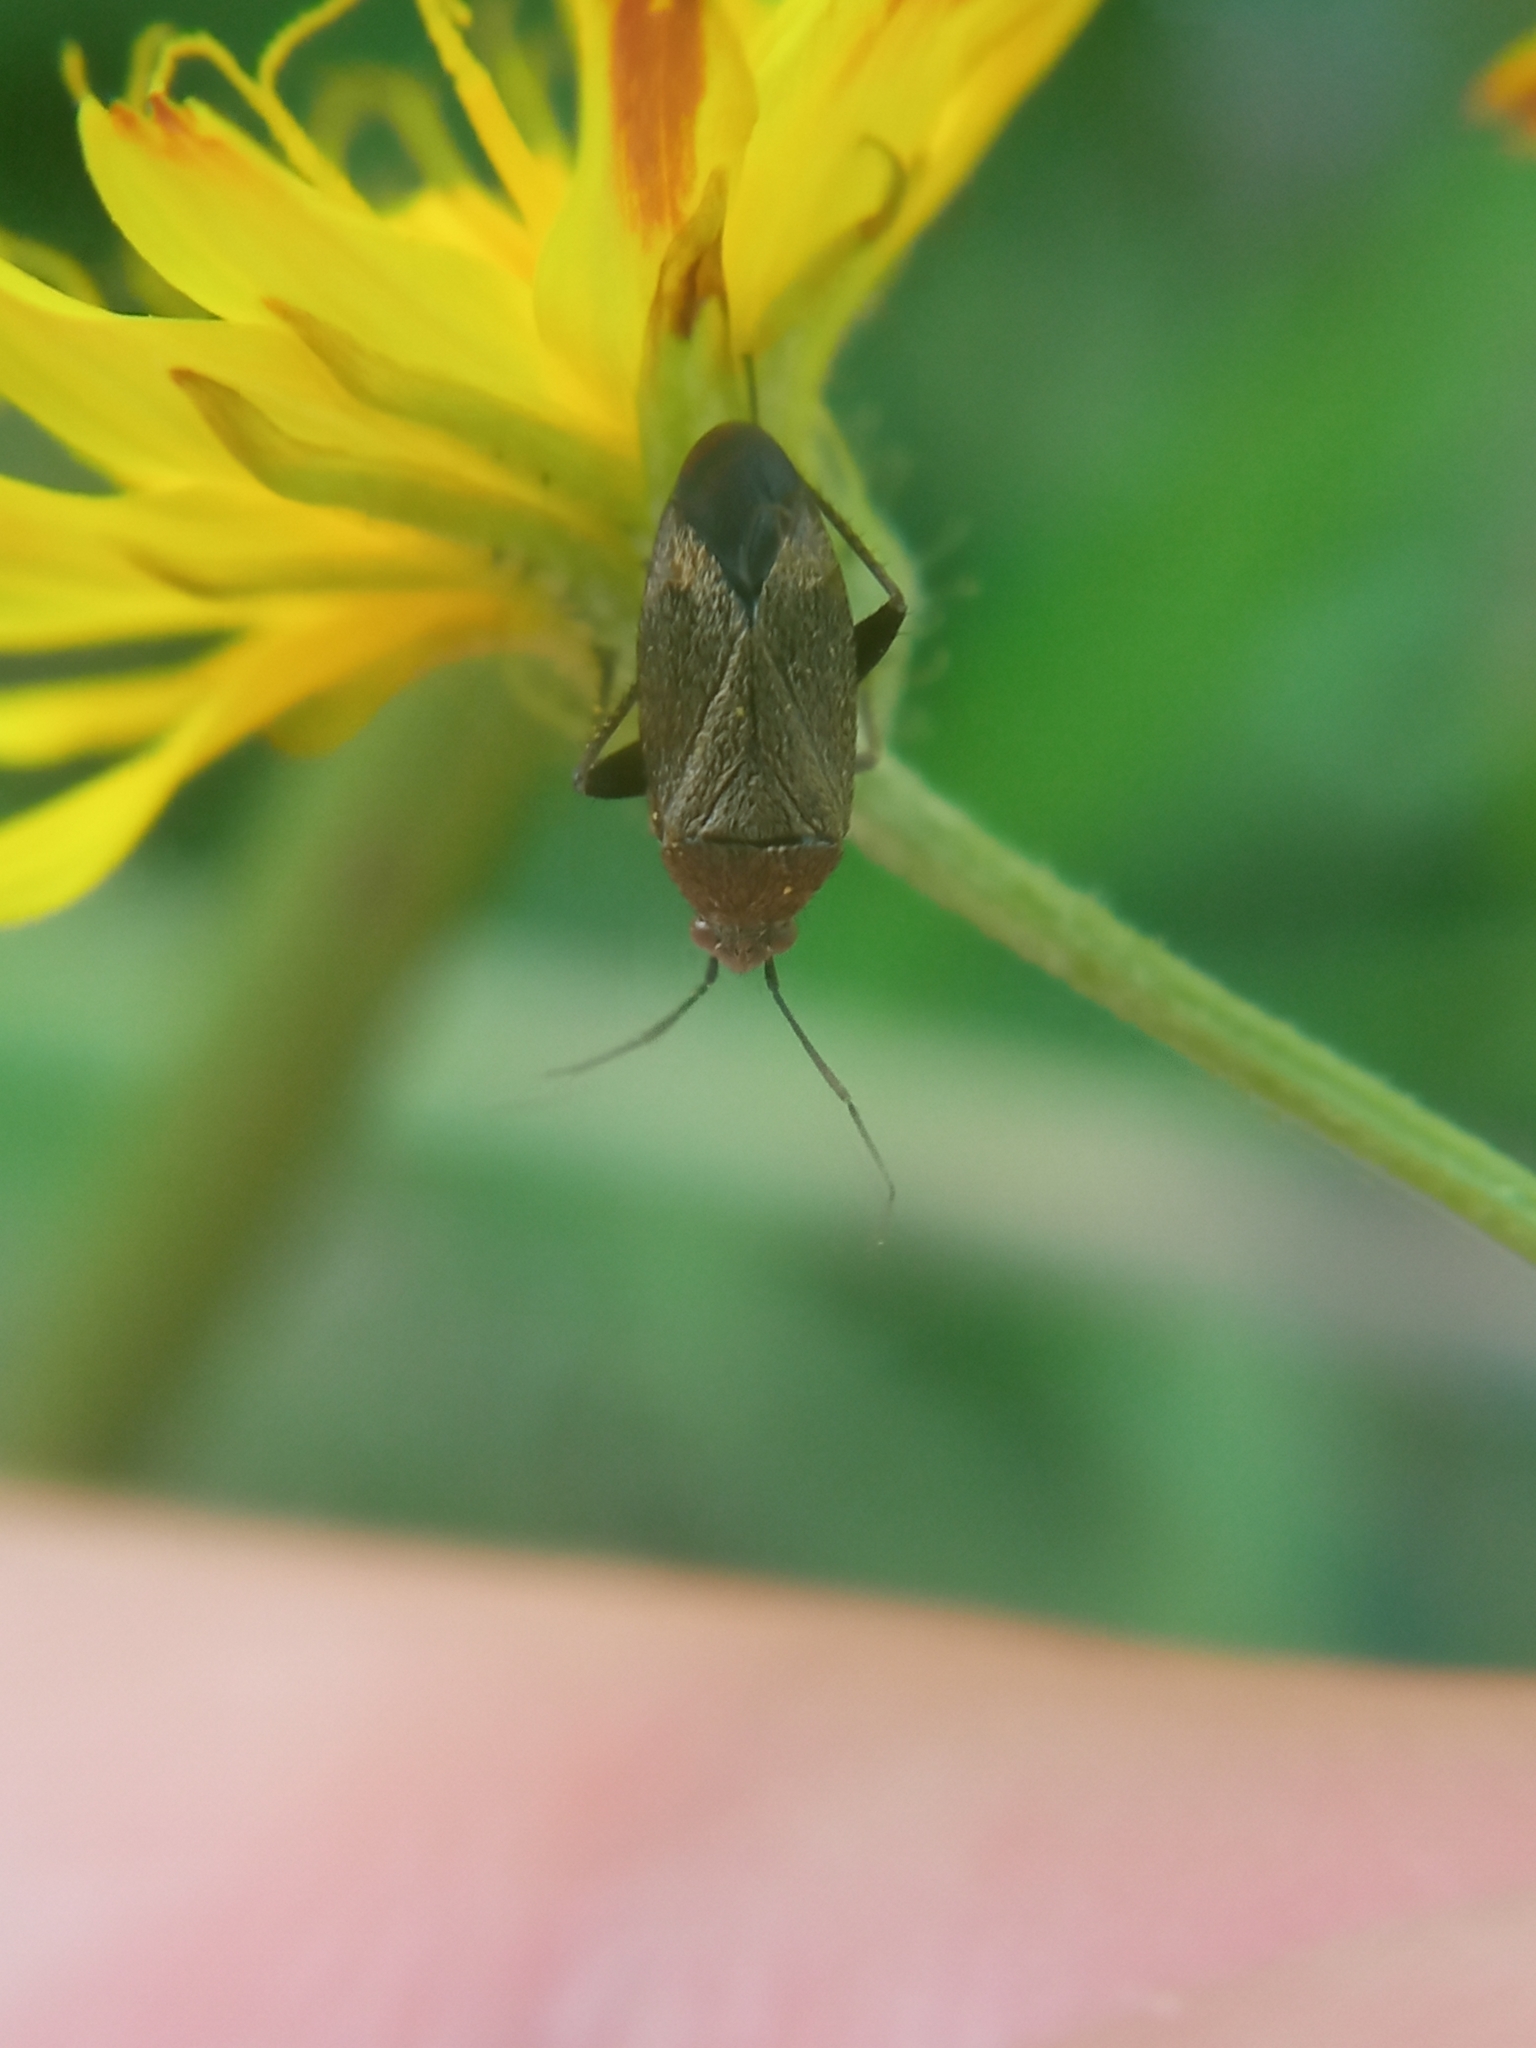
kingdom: Animalia
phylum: Arthropoda
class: Insecta
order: Hemiptera
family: Miridae
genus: Lepidargyrus
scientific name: Lepidargyrus ancorifer
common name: Plant bug
